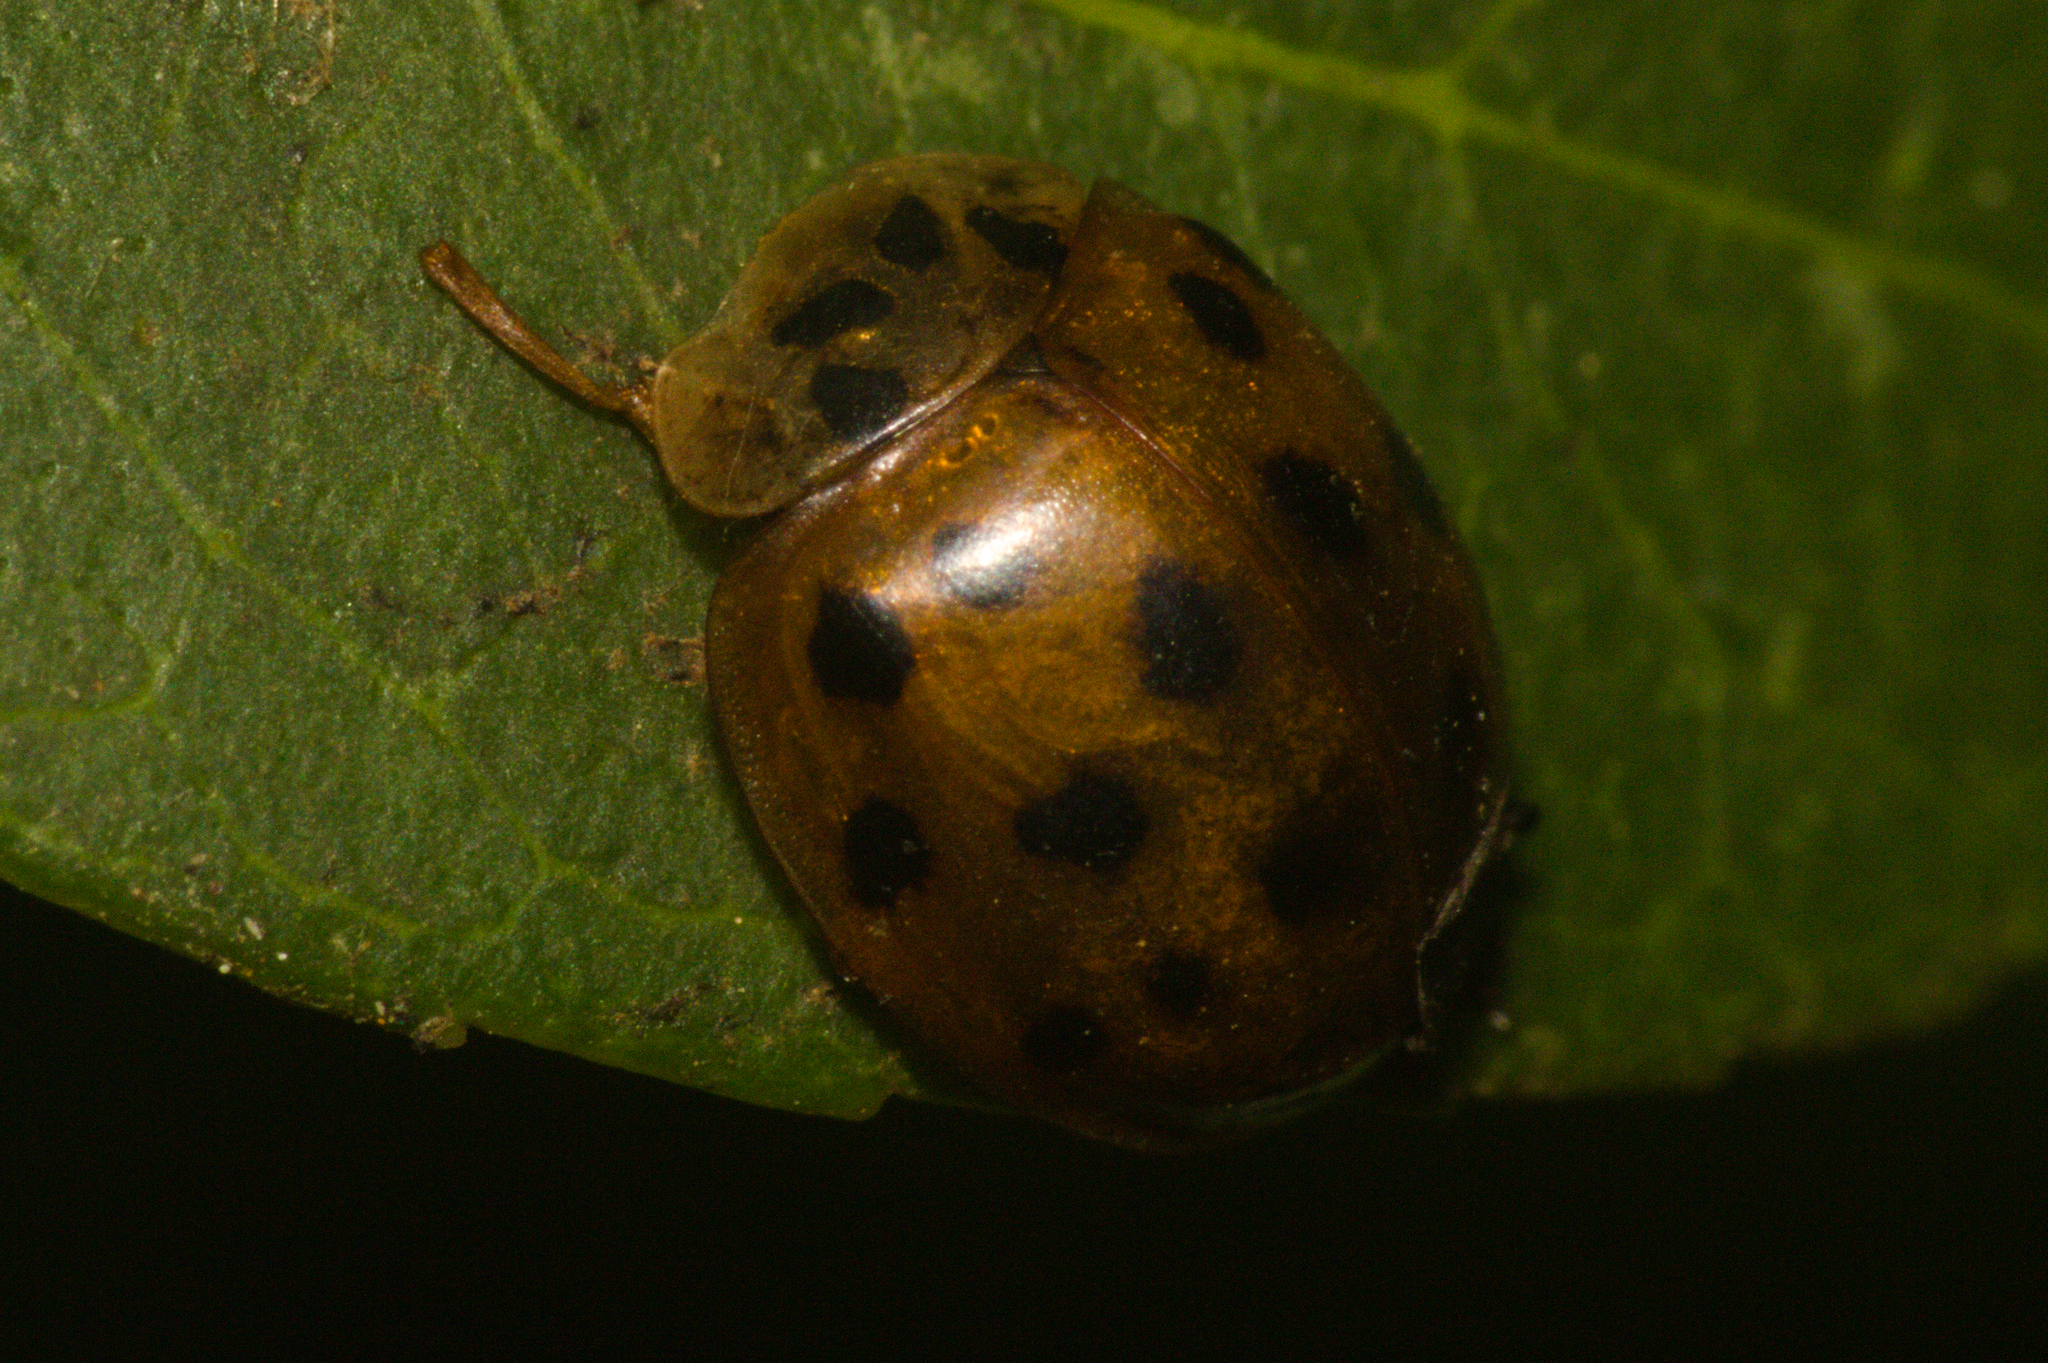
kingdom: Animalia
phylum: Arthropoda
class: Insecta
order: Coleoptera
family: Coccinellidae
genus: Harmonia
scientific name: Harmonia axyridis
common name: Harlequin ladybird
